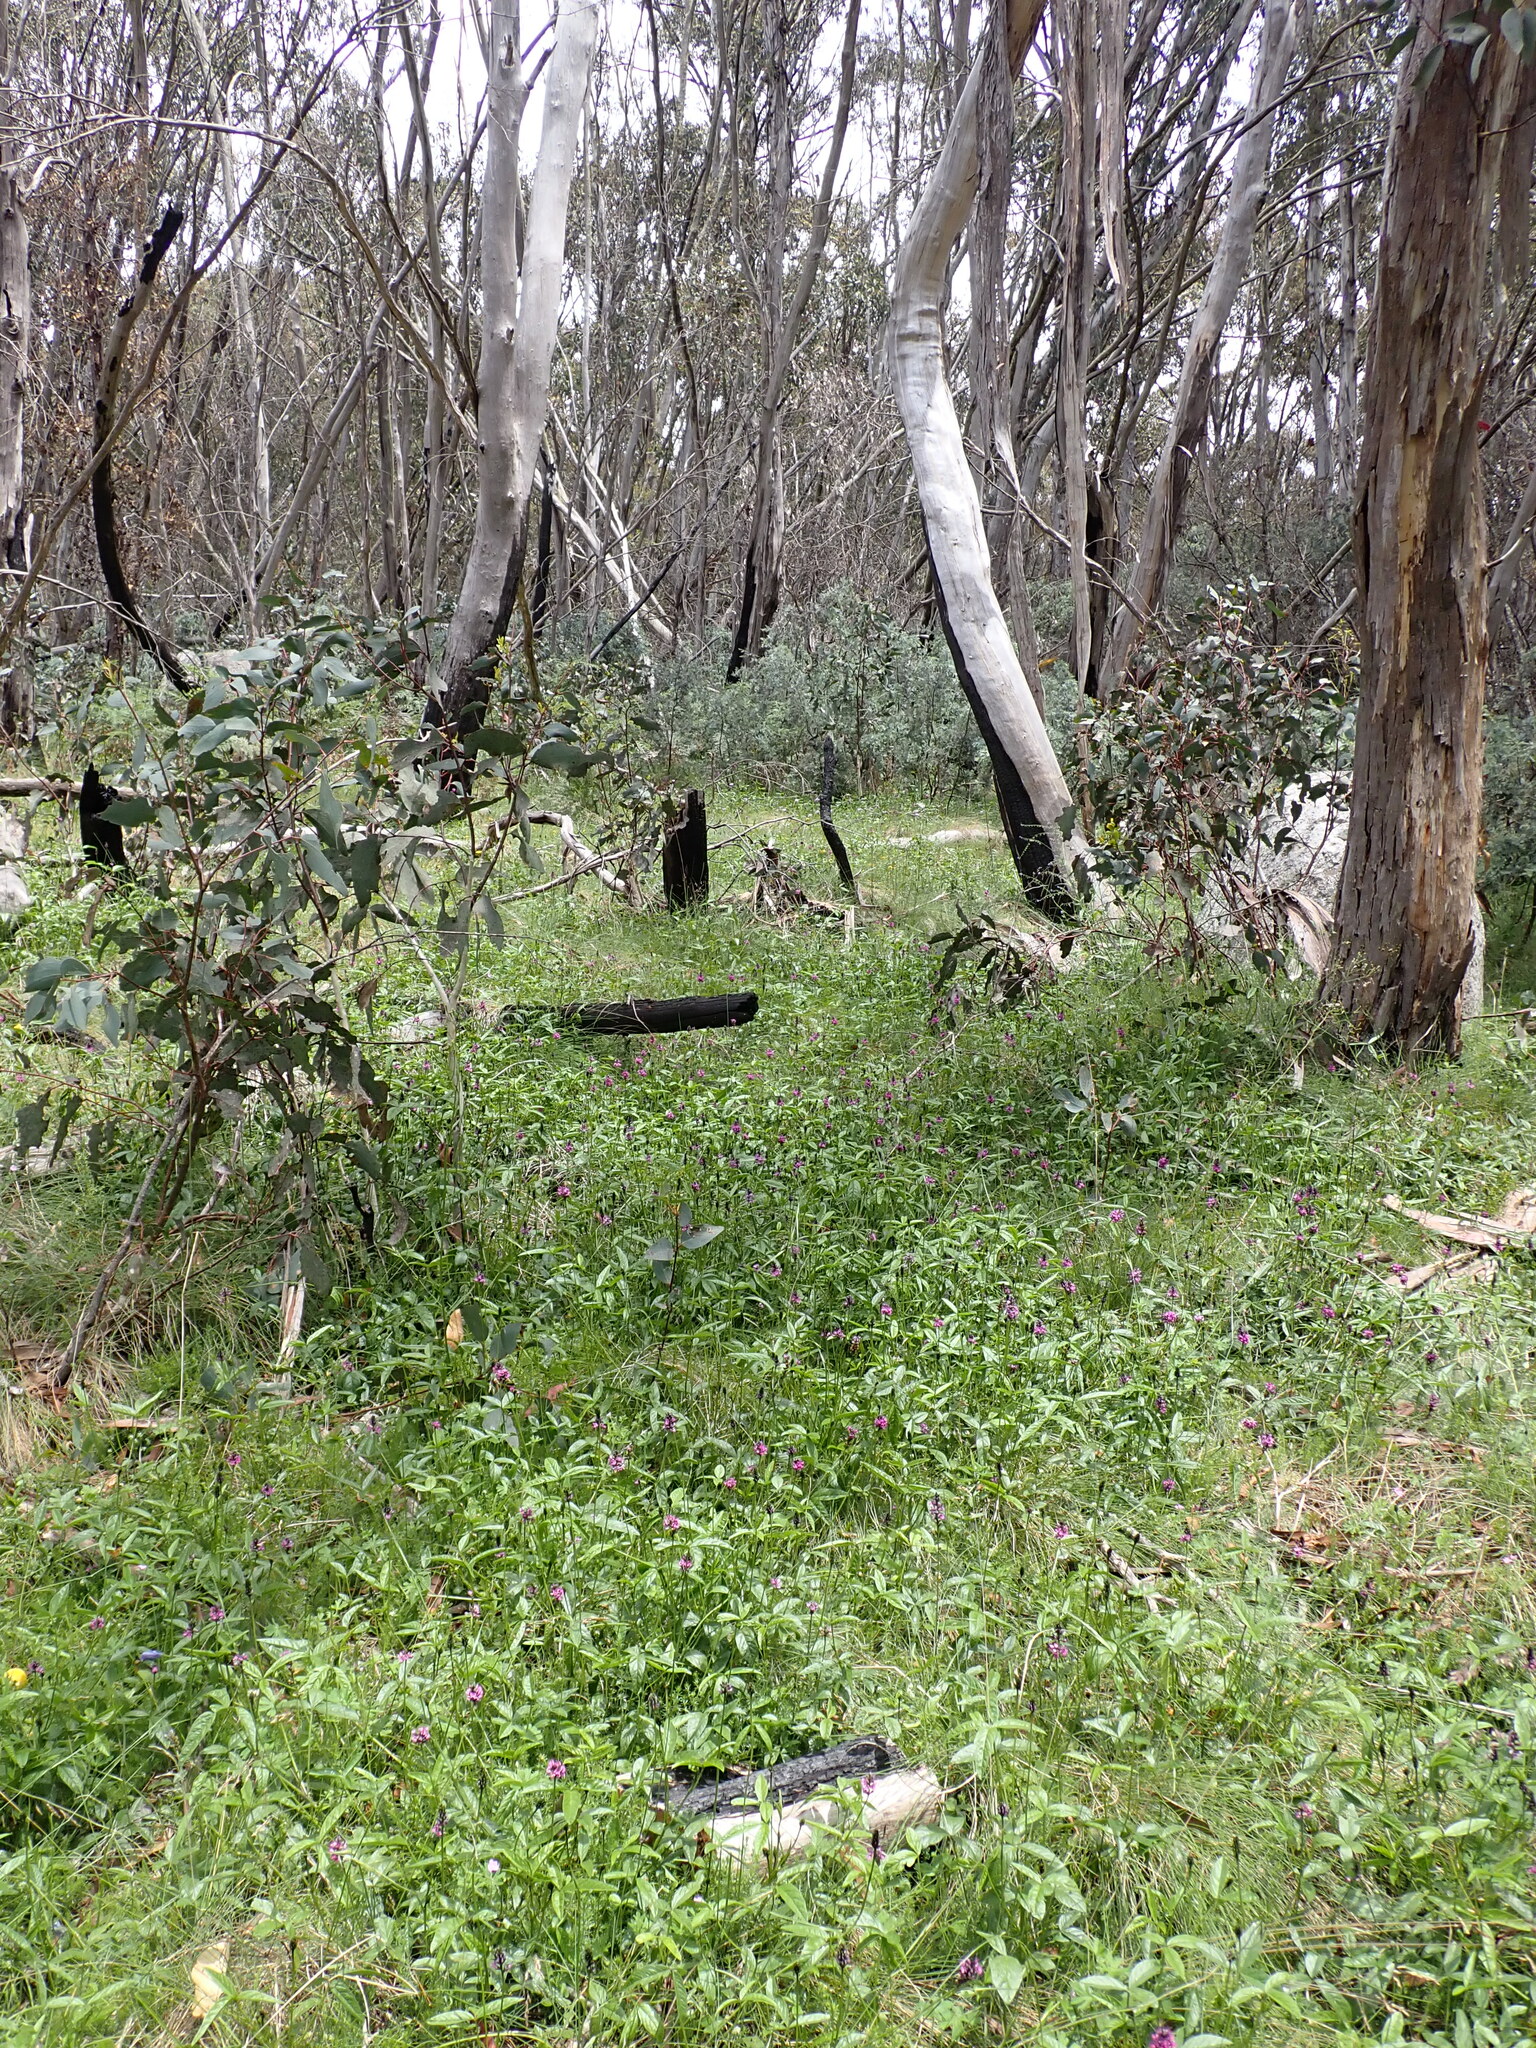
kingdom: Plantae
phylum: Tracheophyta
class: Magnoliopsida
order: Fabales
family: Fabaceae
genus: Cullen
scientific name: Cullen microcephalum
